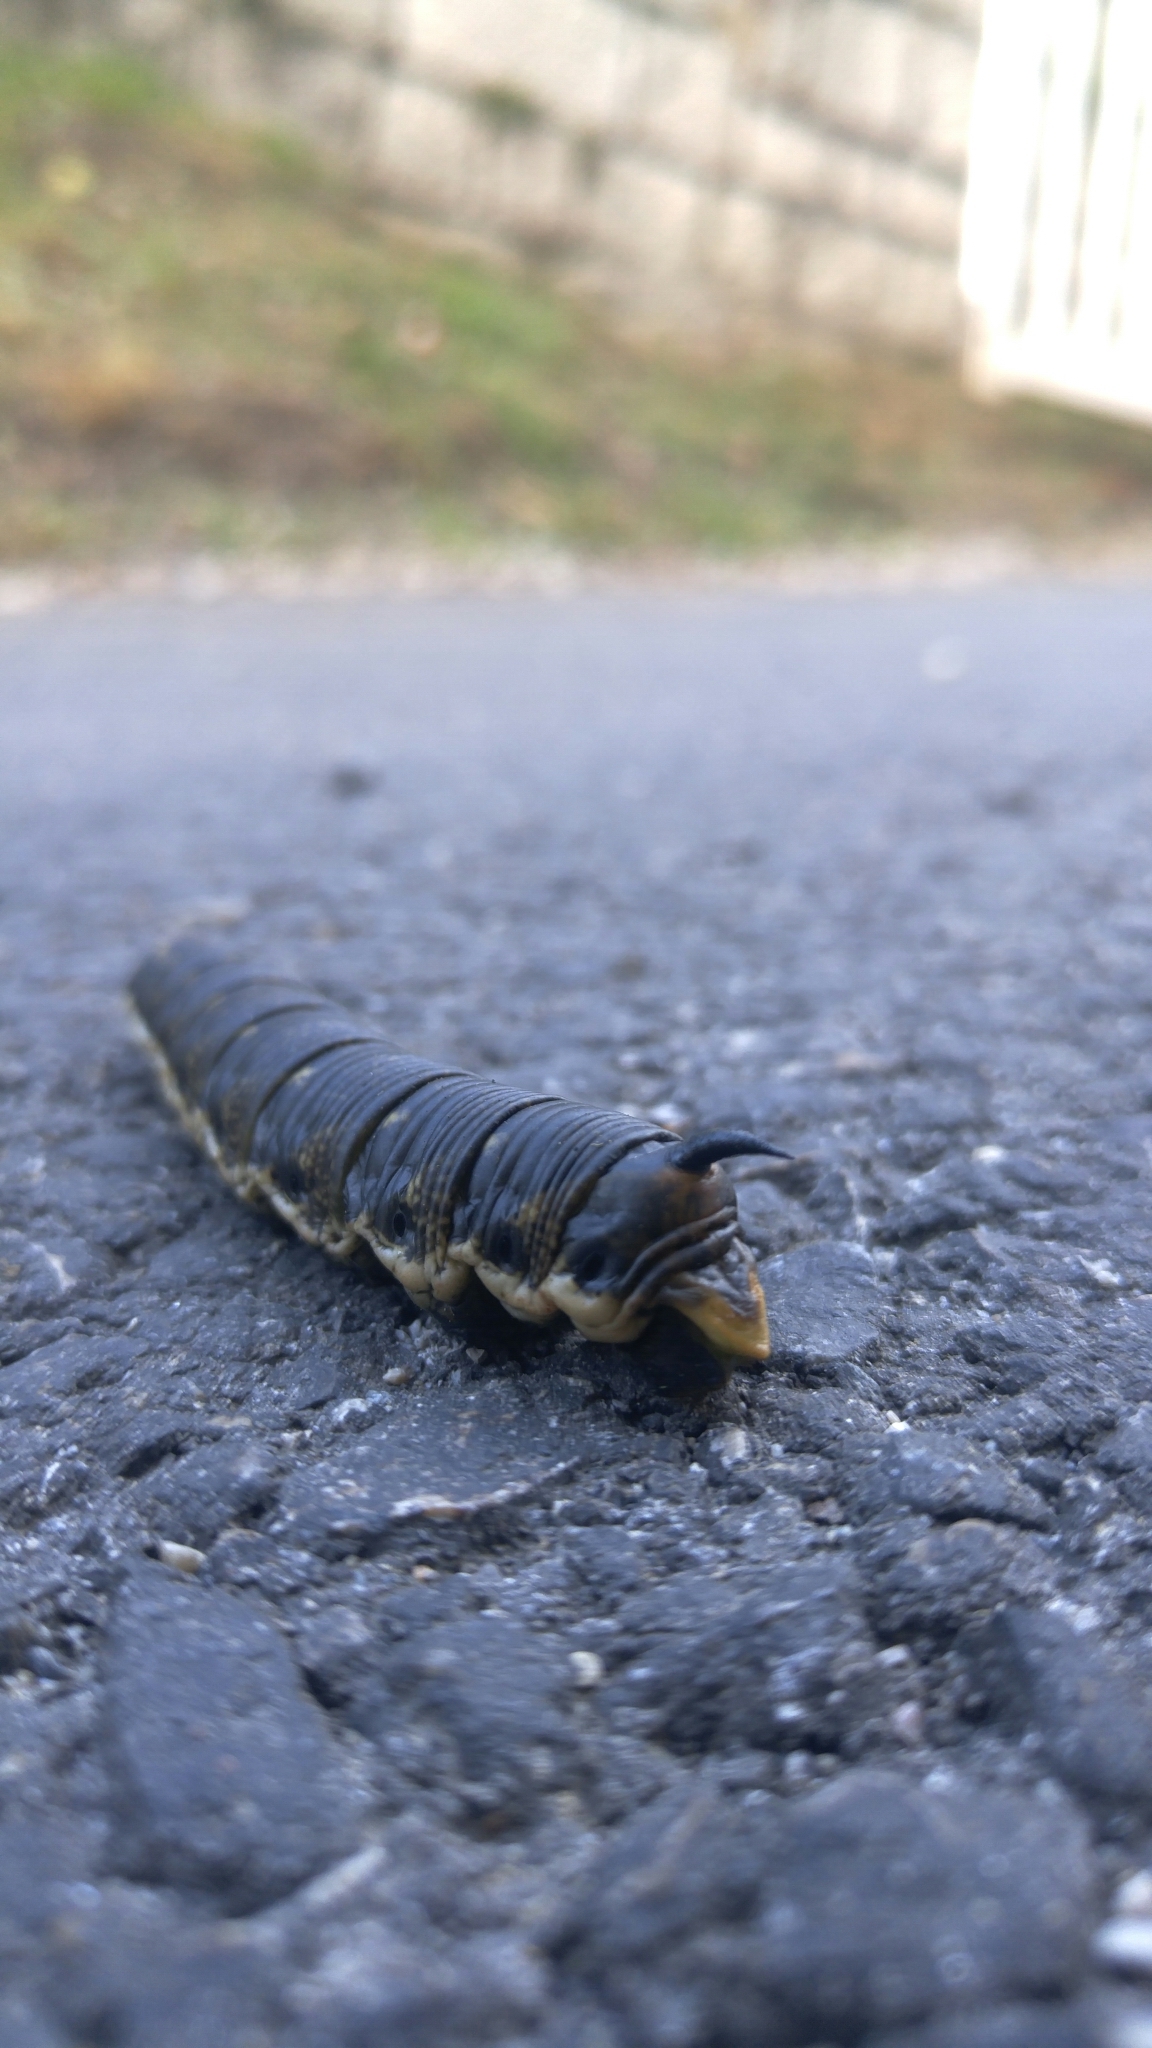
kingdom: Animalia
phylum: Arthropoda
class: Insecta
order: Lepidoptera
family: Sphingidae
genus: Agrius
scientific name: Agrius convolvuli
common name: Convolvulus hawkmoth
